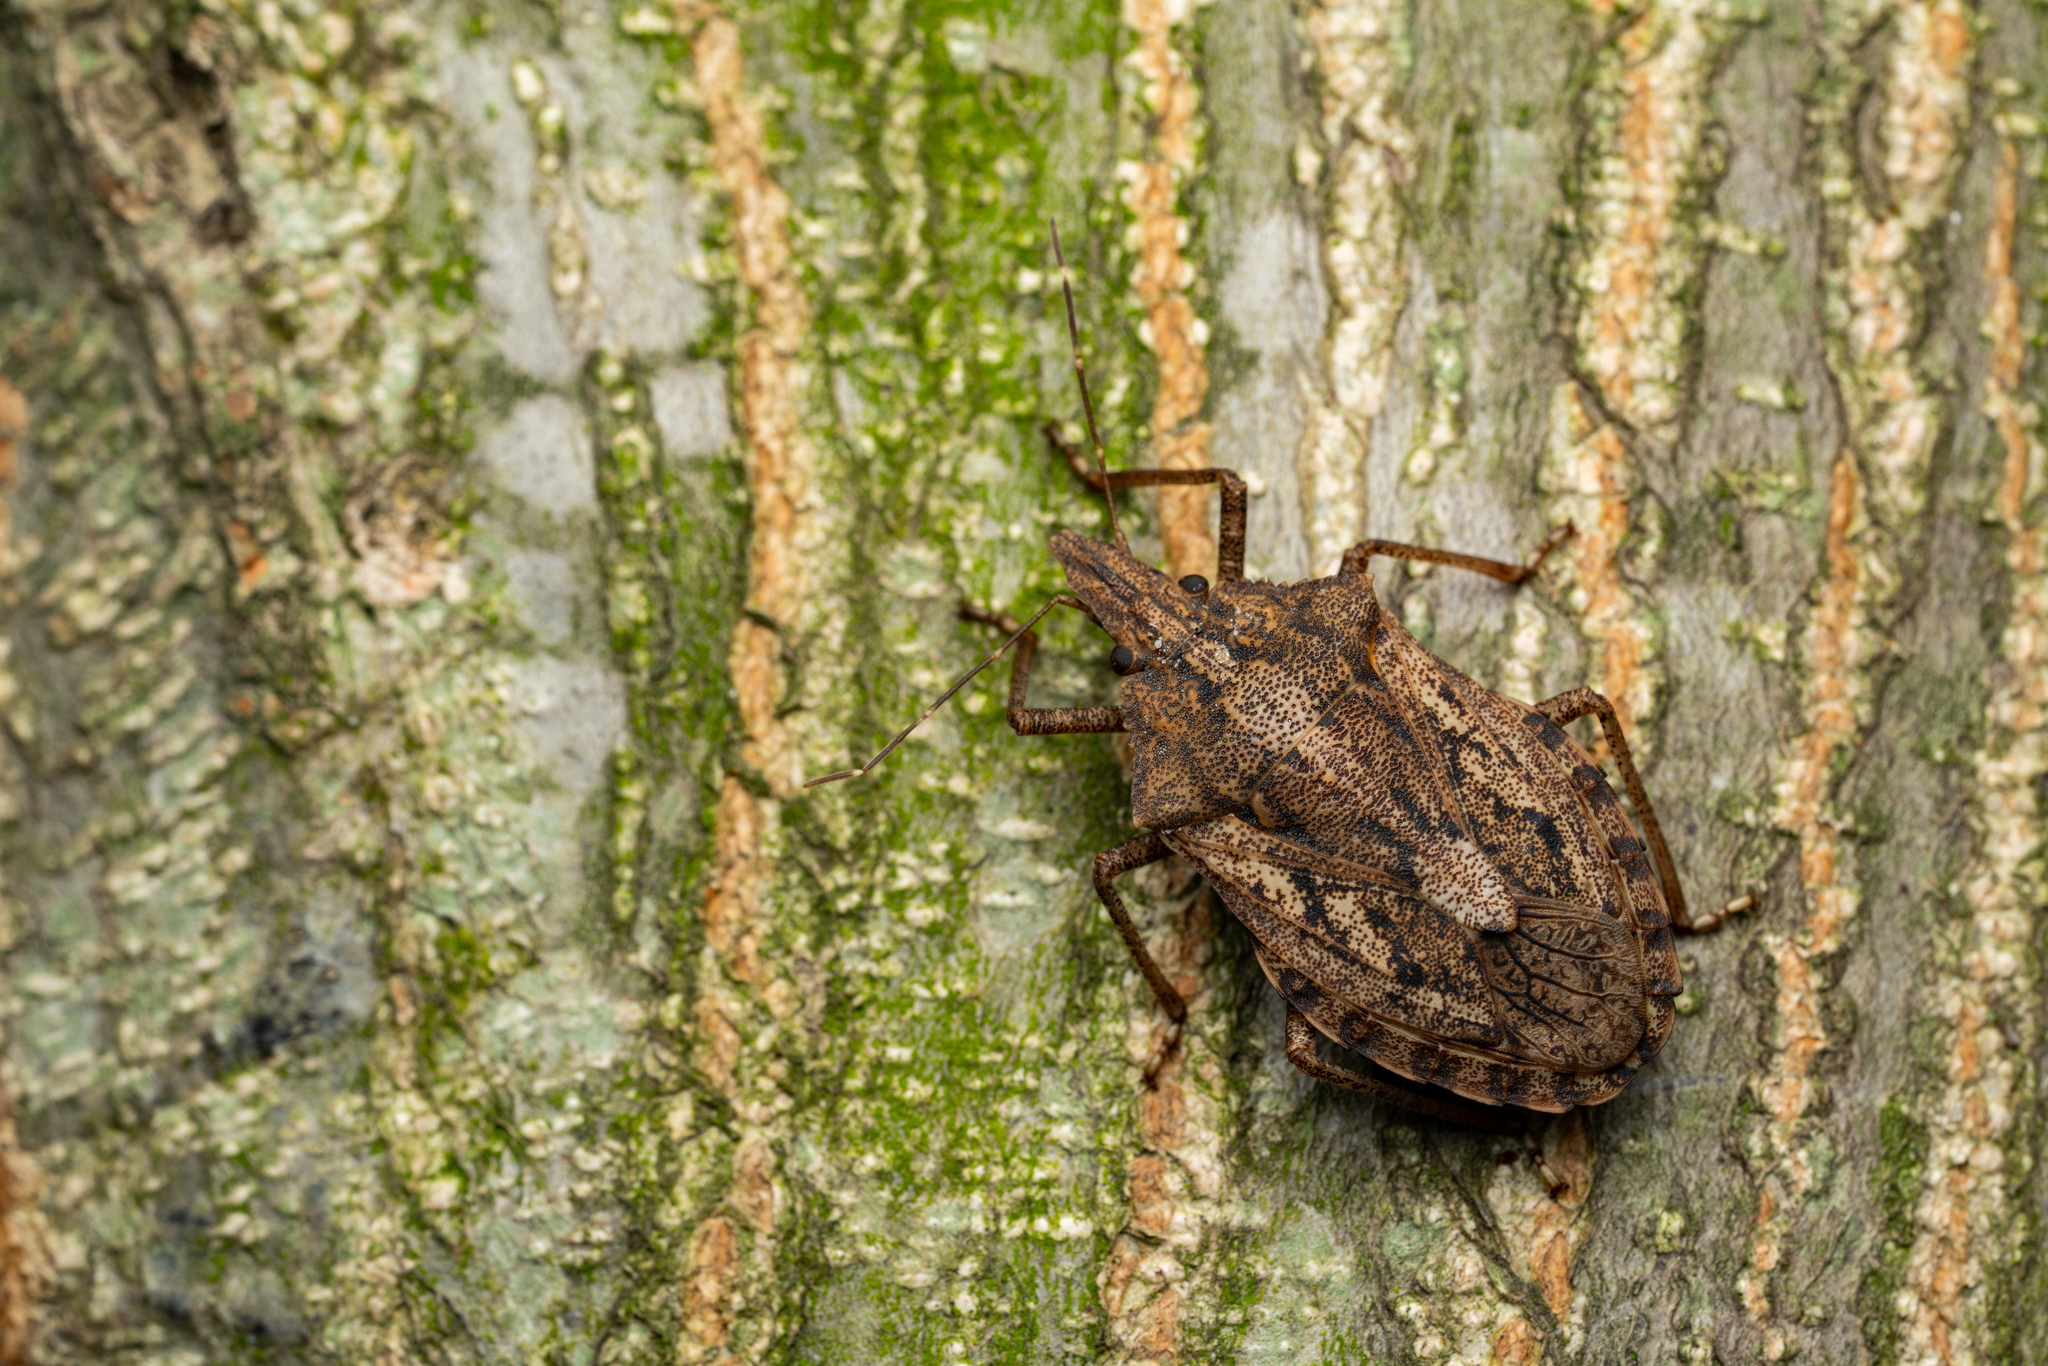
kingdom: Animalia
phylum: Arthropoda
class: Insecta
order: Hemiptera
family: Pentatomidae
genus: Neohalys
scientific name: Neohalys serricollis
